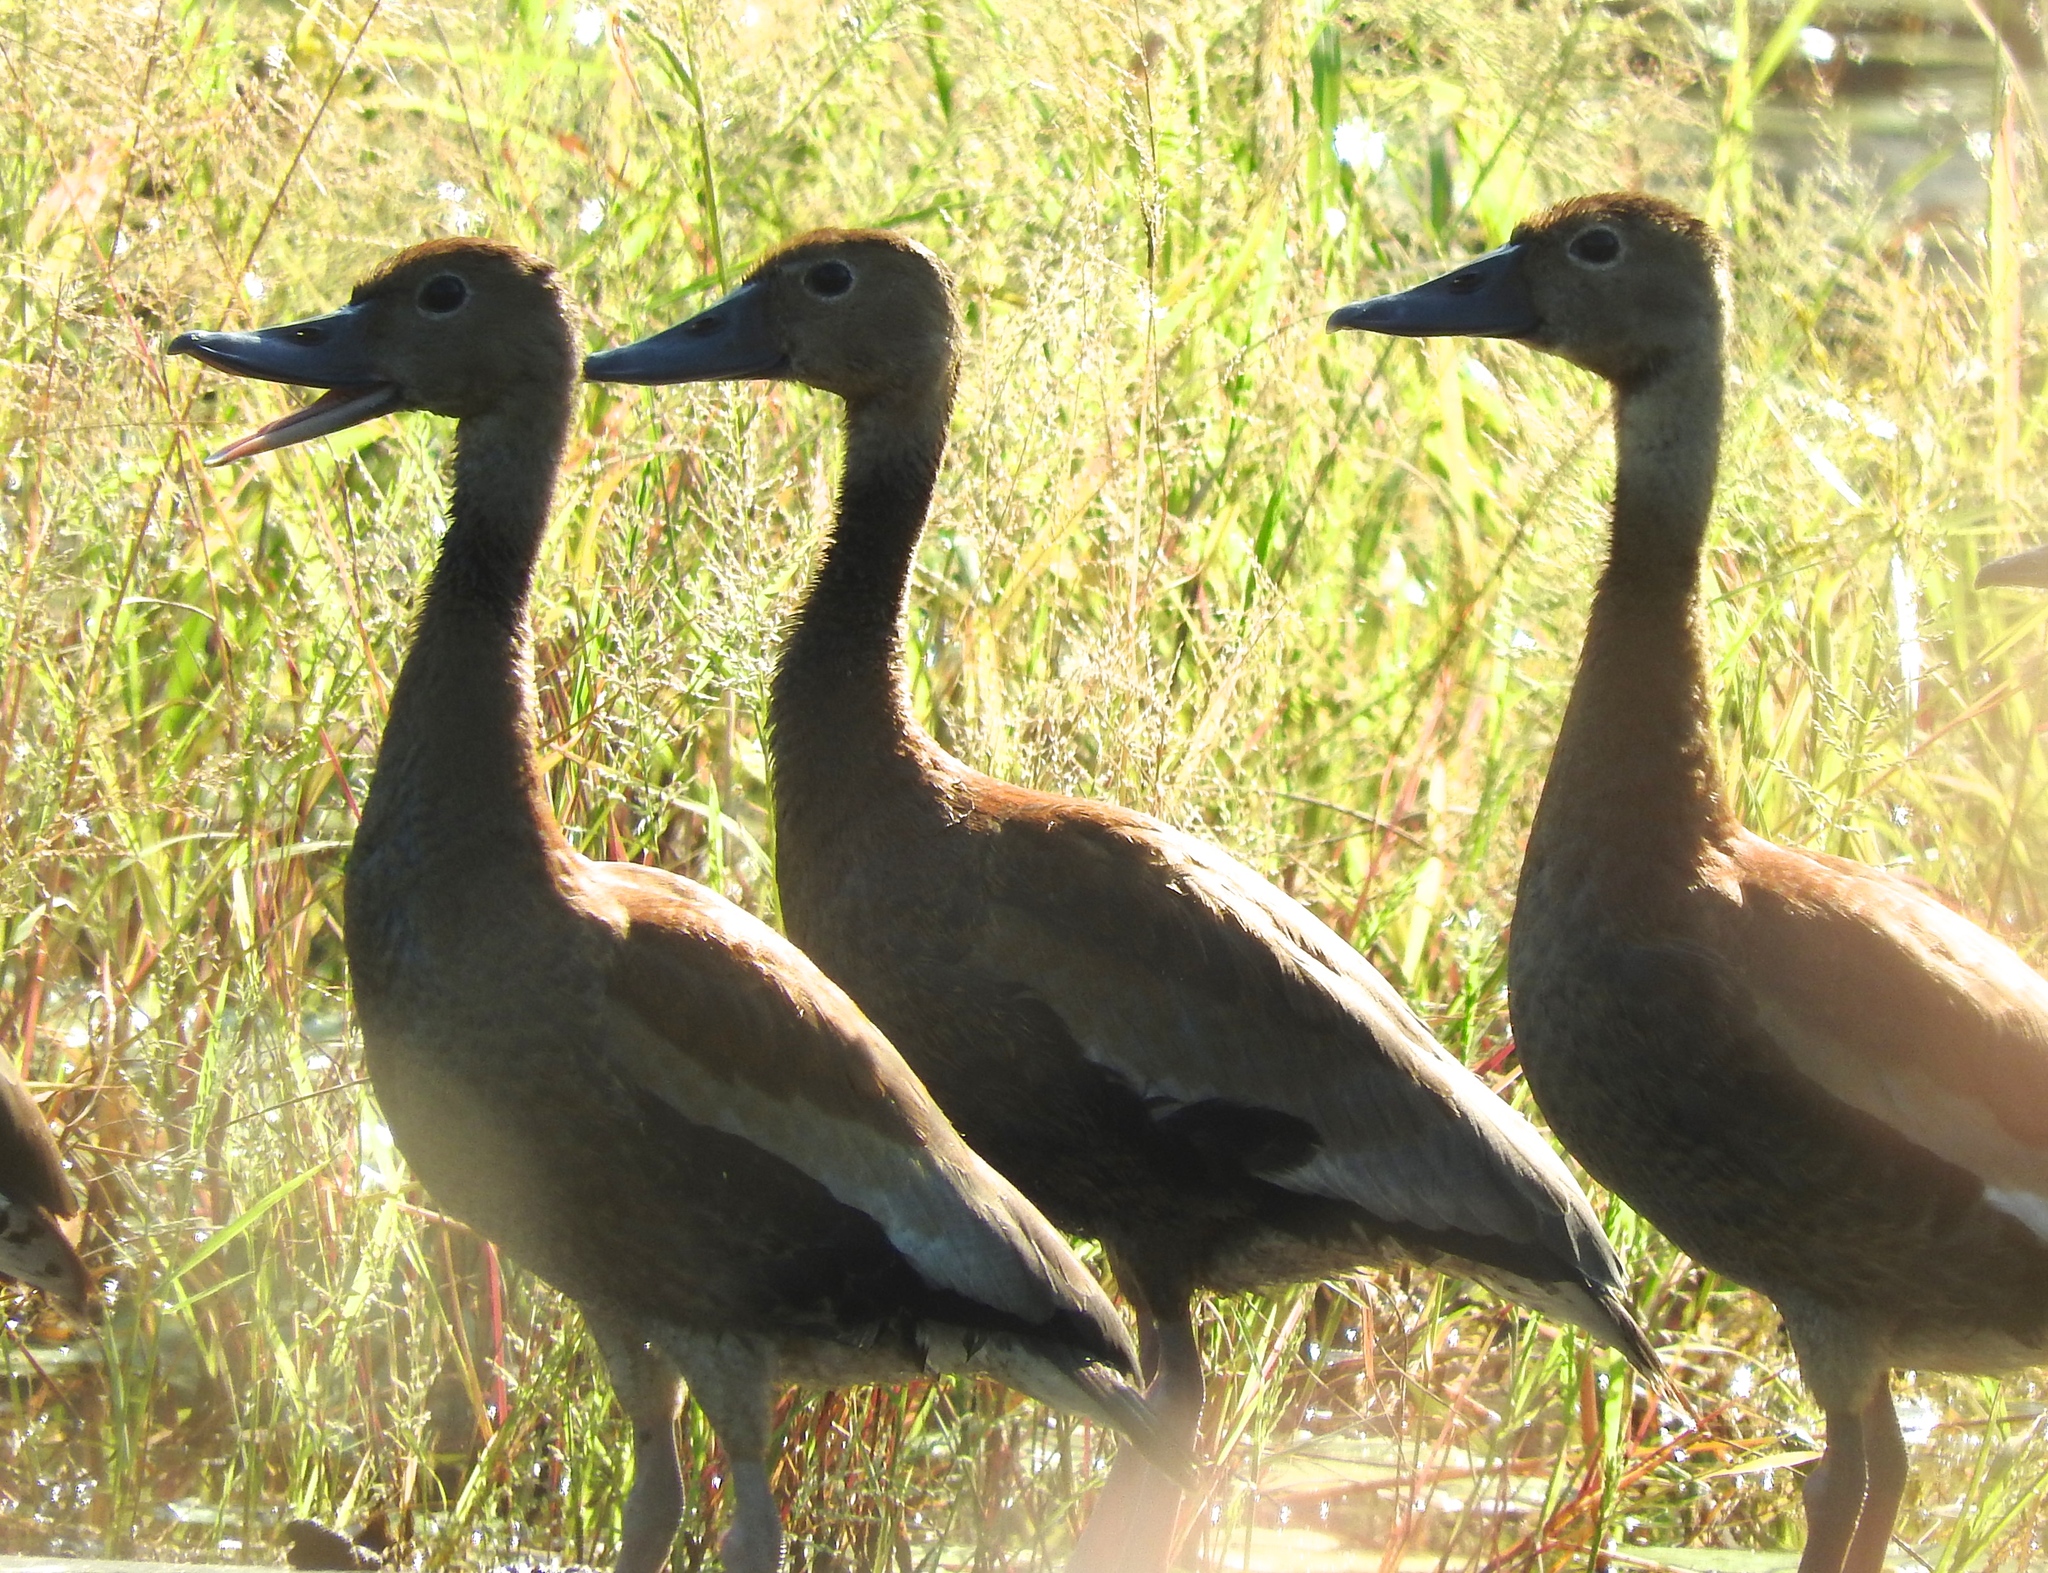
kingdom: Animalia
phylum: Chordata
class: Aves
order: Anseriformes
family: Anatidae
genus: Dendrocygna
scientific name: Dendrocygna autumnalis
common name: Black-bellied whistling duck
